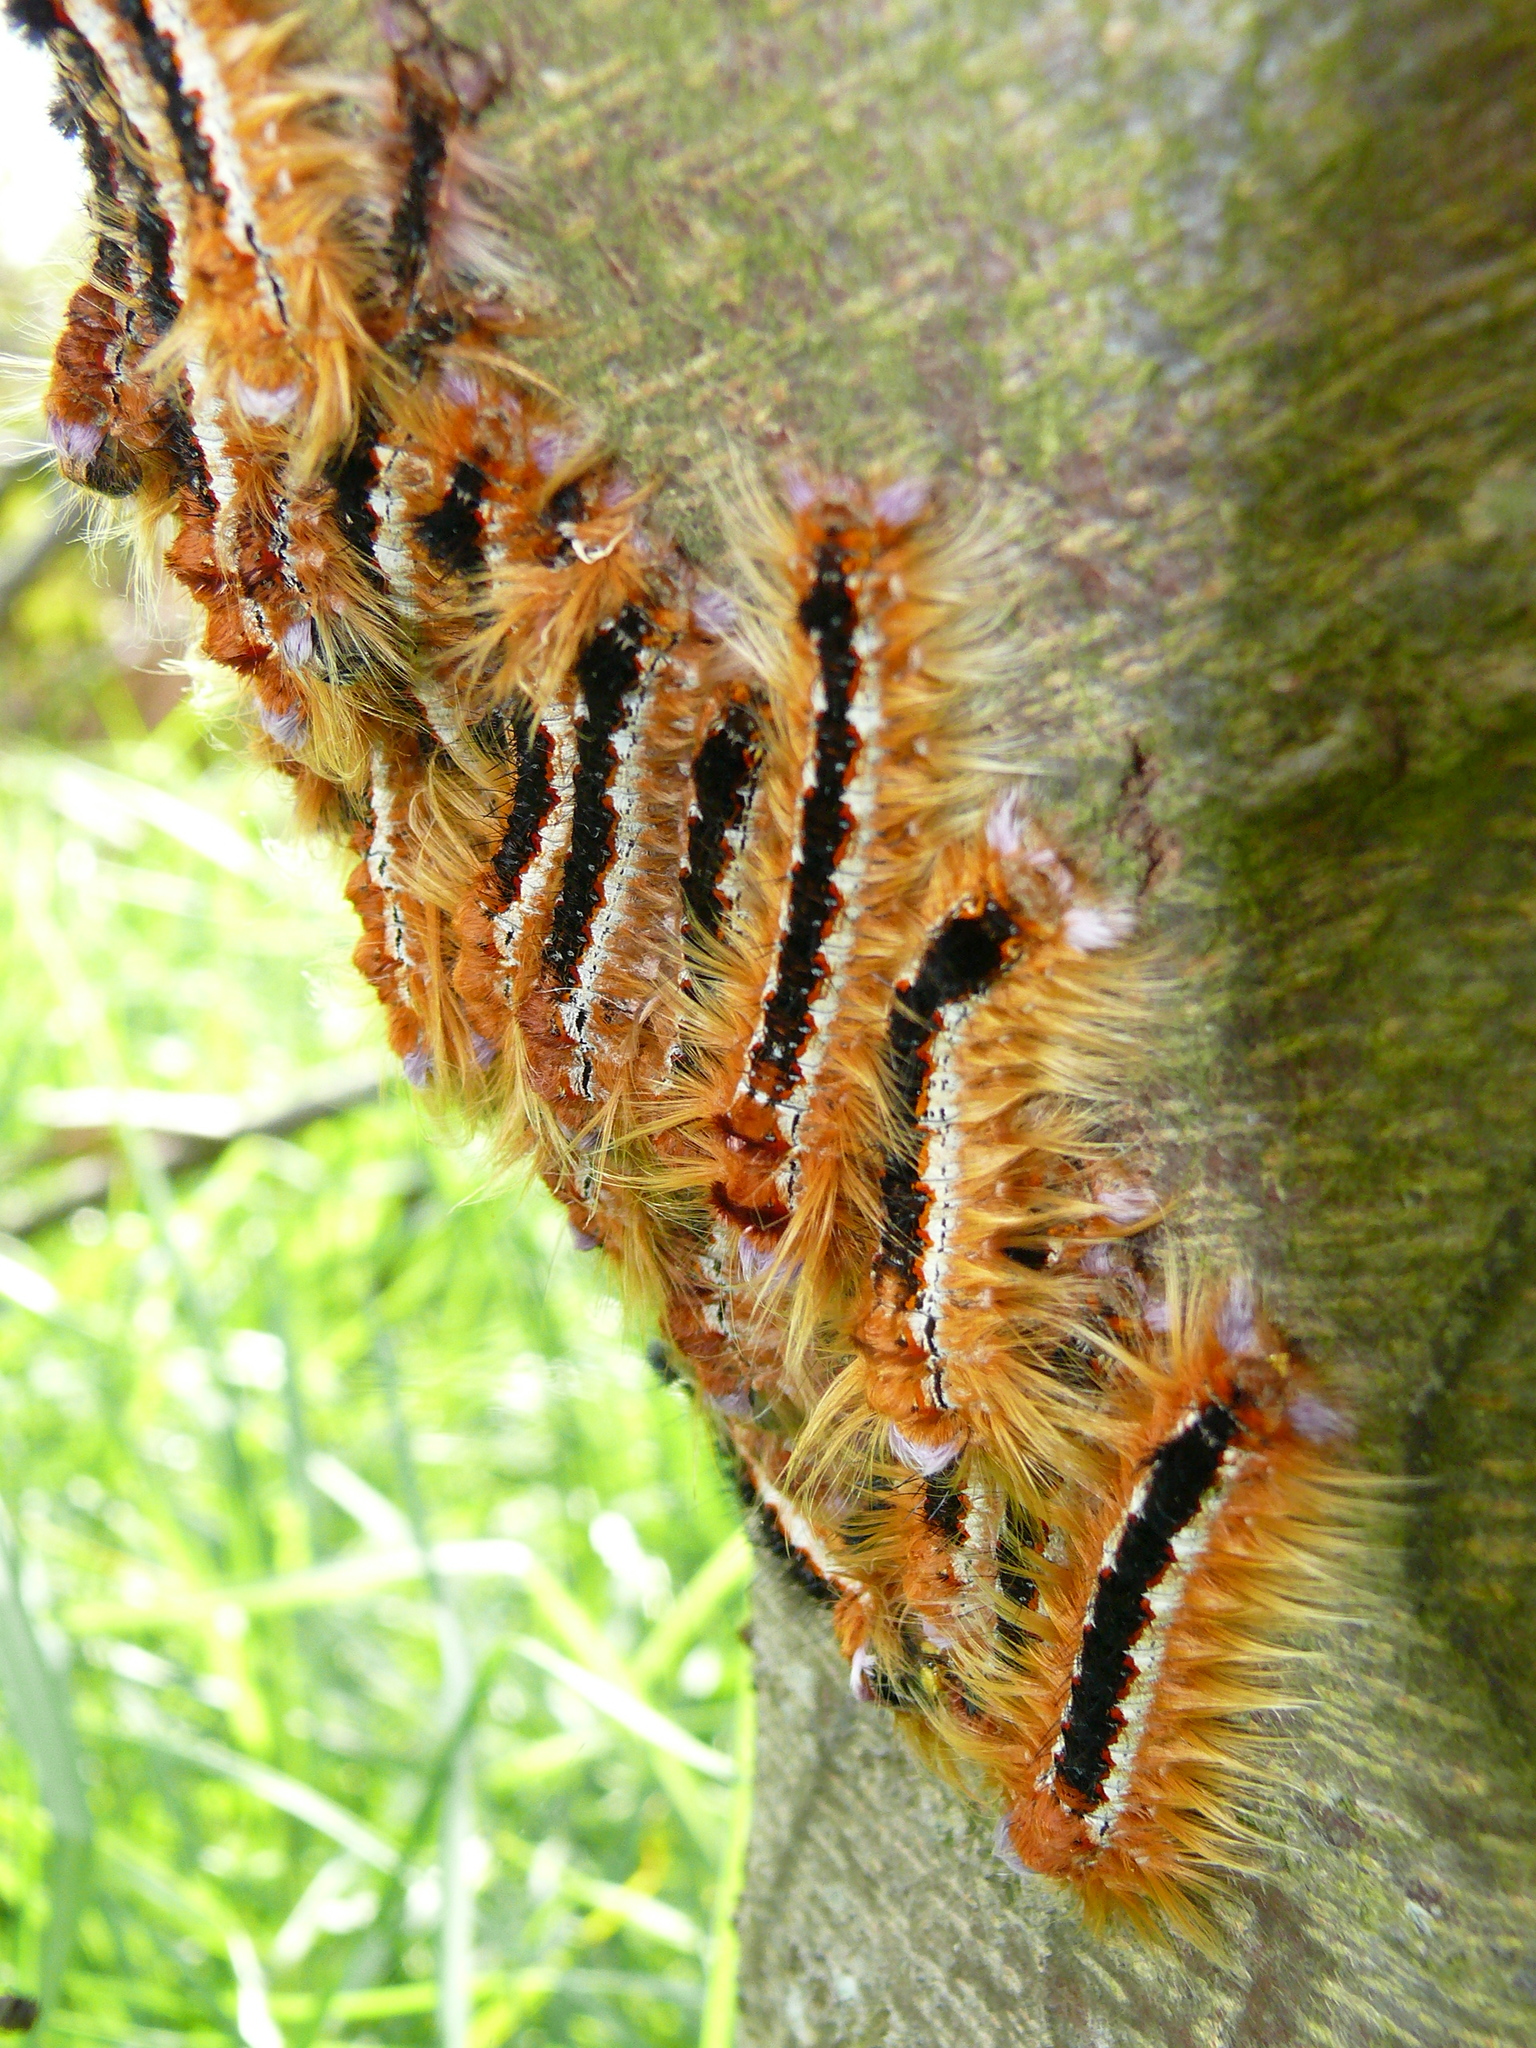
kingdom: Animalia
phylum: Arthropoda
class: Insecta
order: Lepidoptera
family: Lasiocampidae
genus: Eutricha
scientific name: Eutricha capensis
